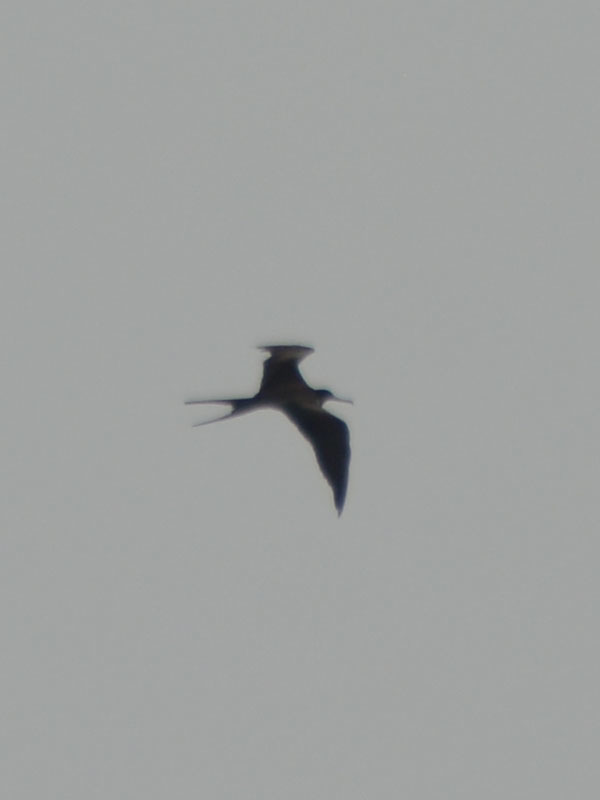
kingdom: Animalia
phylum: Chordata
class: Aves
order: Suliformes
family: Fregatidae
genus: Fregata
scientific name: Fregata magnificens
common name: Magnificent frigatebird
